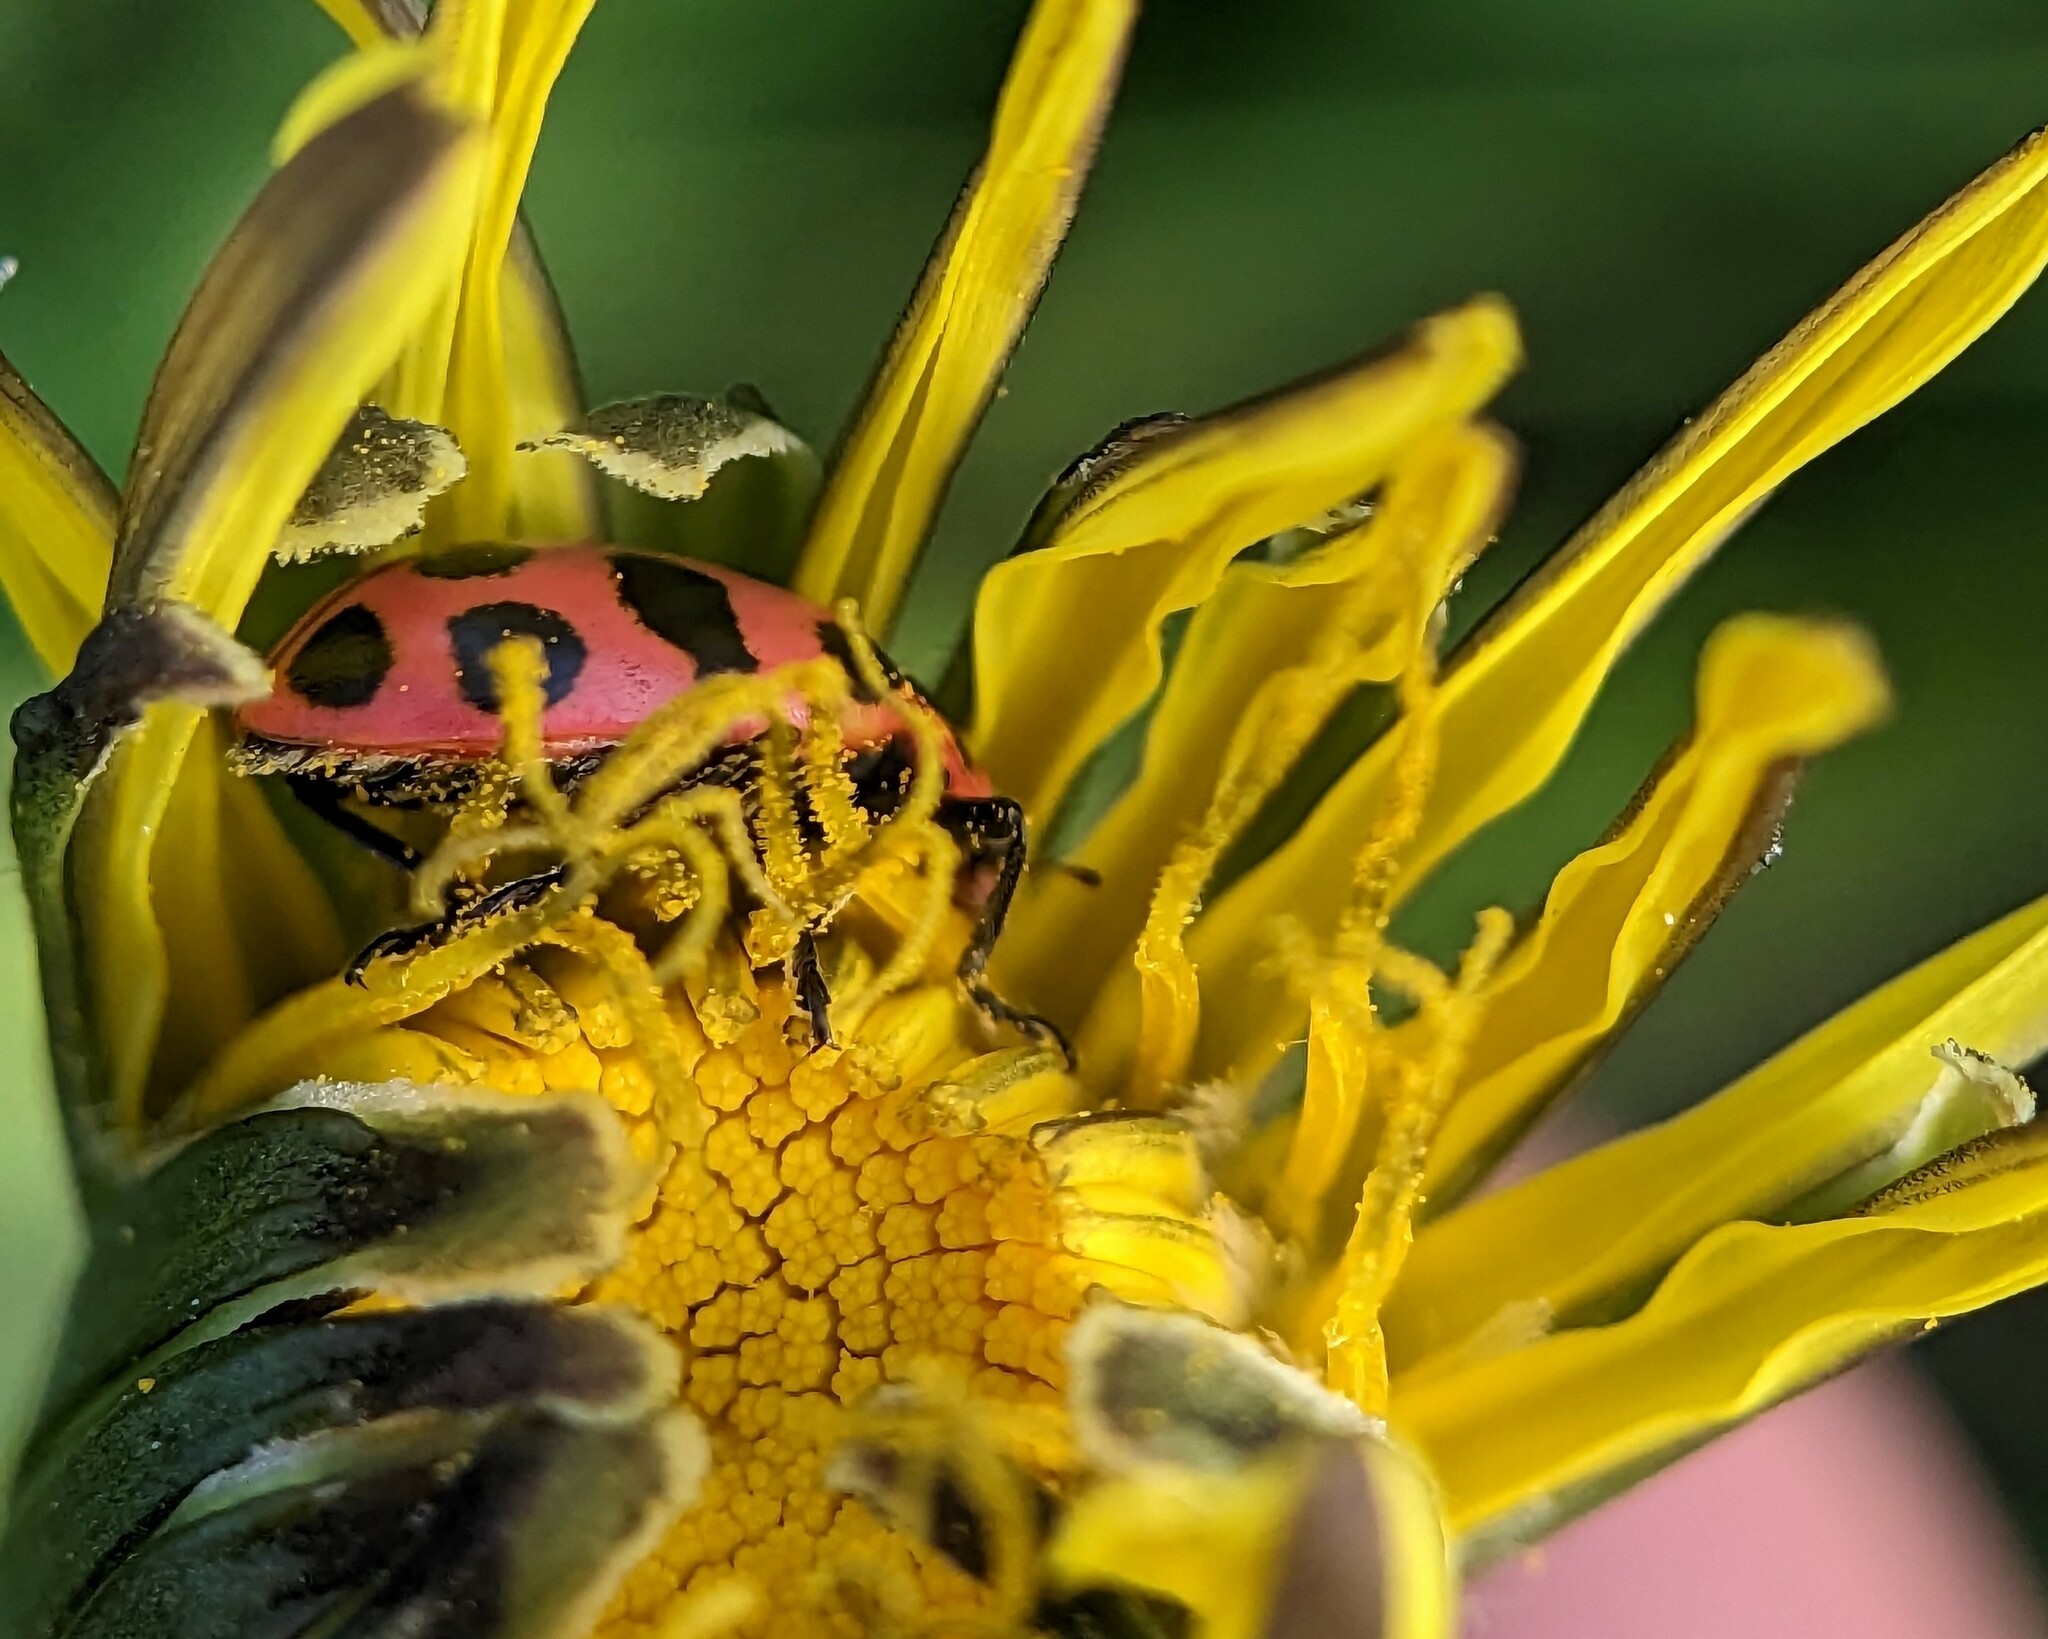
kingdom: Animalia
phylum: Arthropoda
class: Insecta
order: Coleoptera
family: Coccinellidae
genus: Coleomegilla
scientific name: Coleomegilla maculata
